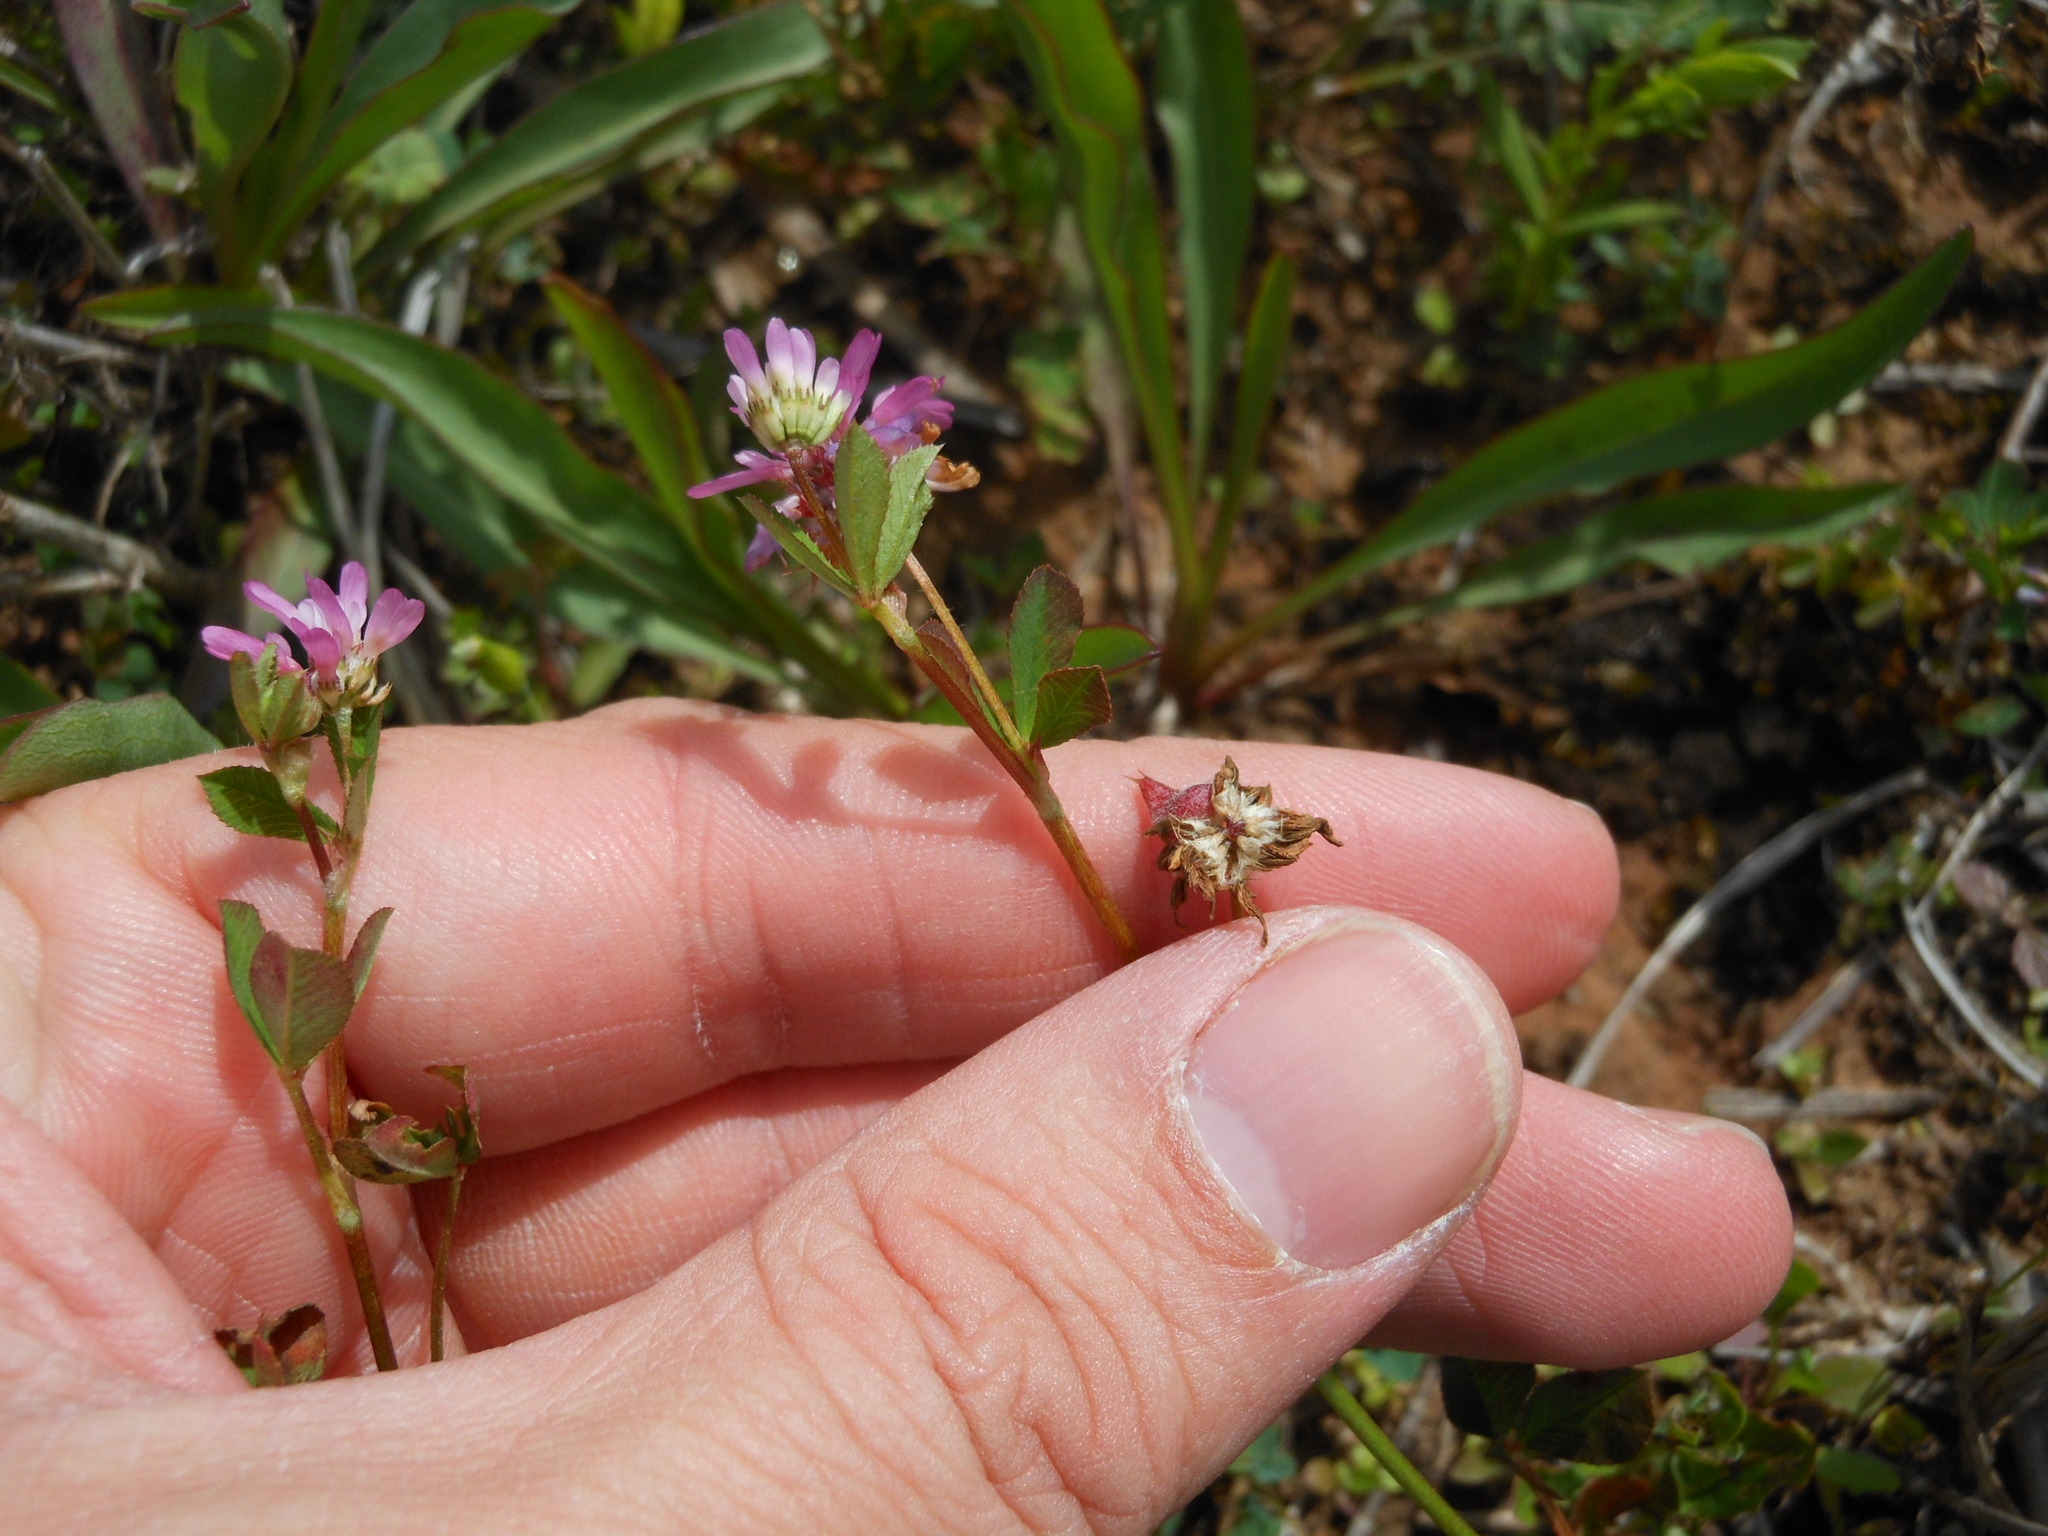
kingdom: Plantae
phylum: Tracheophyta
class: Magnoliopsida
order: Fabales
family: Fabaceae
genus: Trifolium
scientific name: Trifolium resupinatum
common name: Reversed clover
